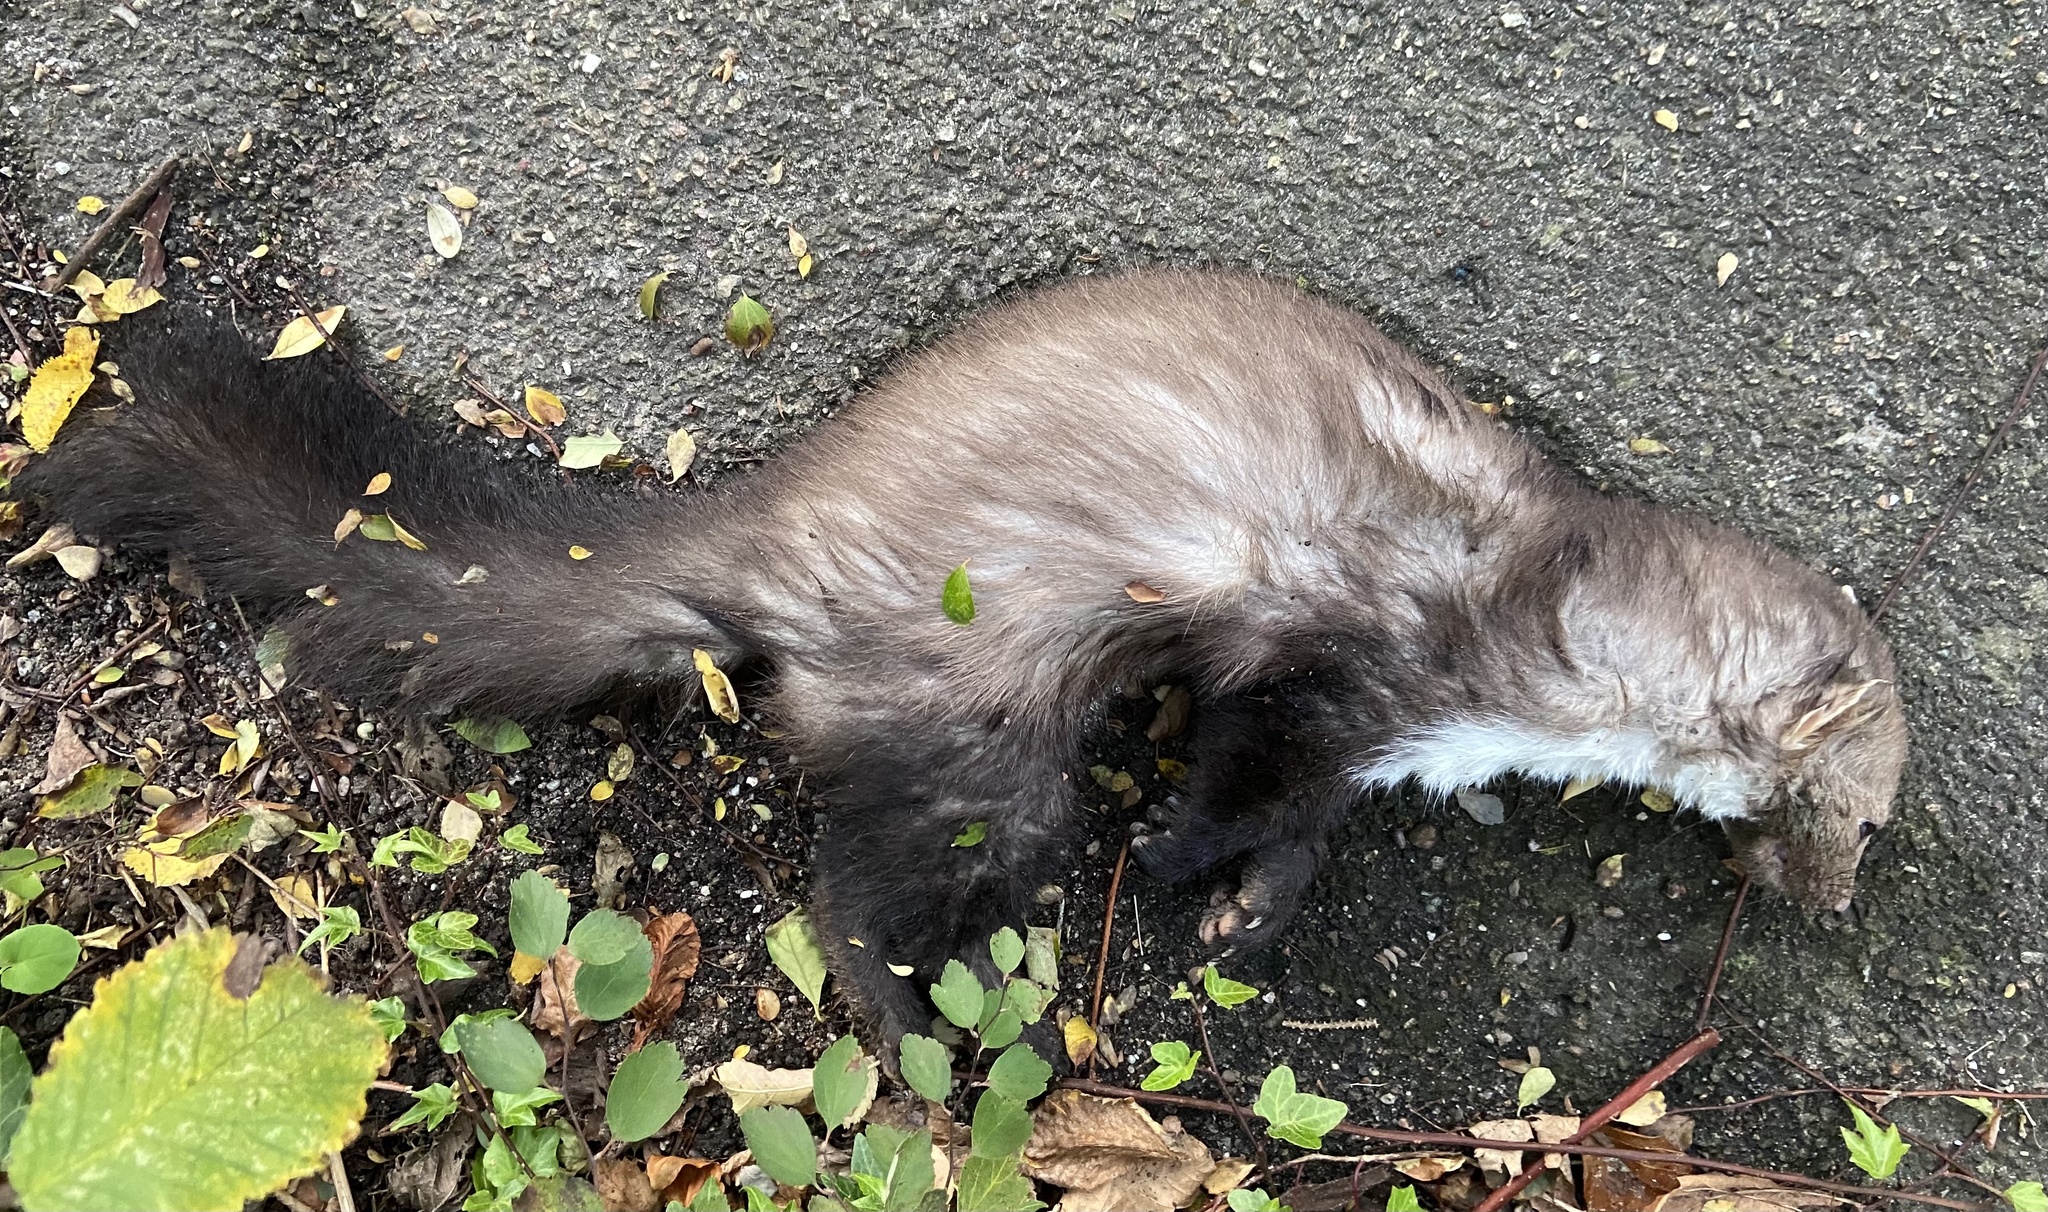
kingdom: Animalia
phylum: Chordata
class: Mammalia
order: Carnivora
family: Mustelidae
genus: Martes
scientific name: Martes foina
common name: Beech marten
